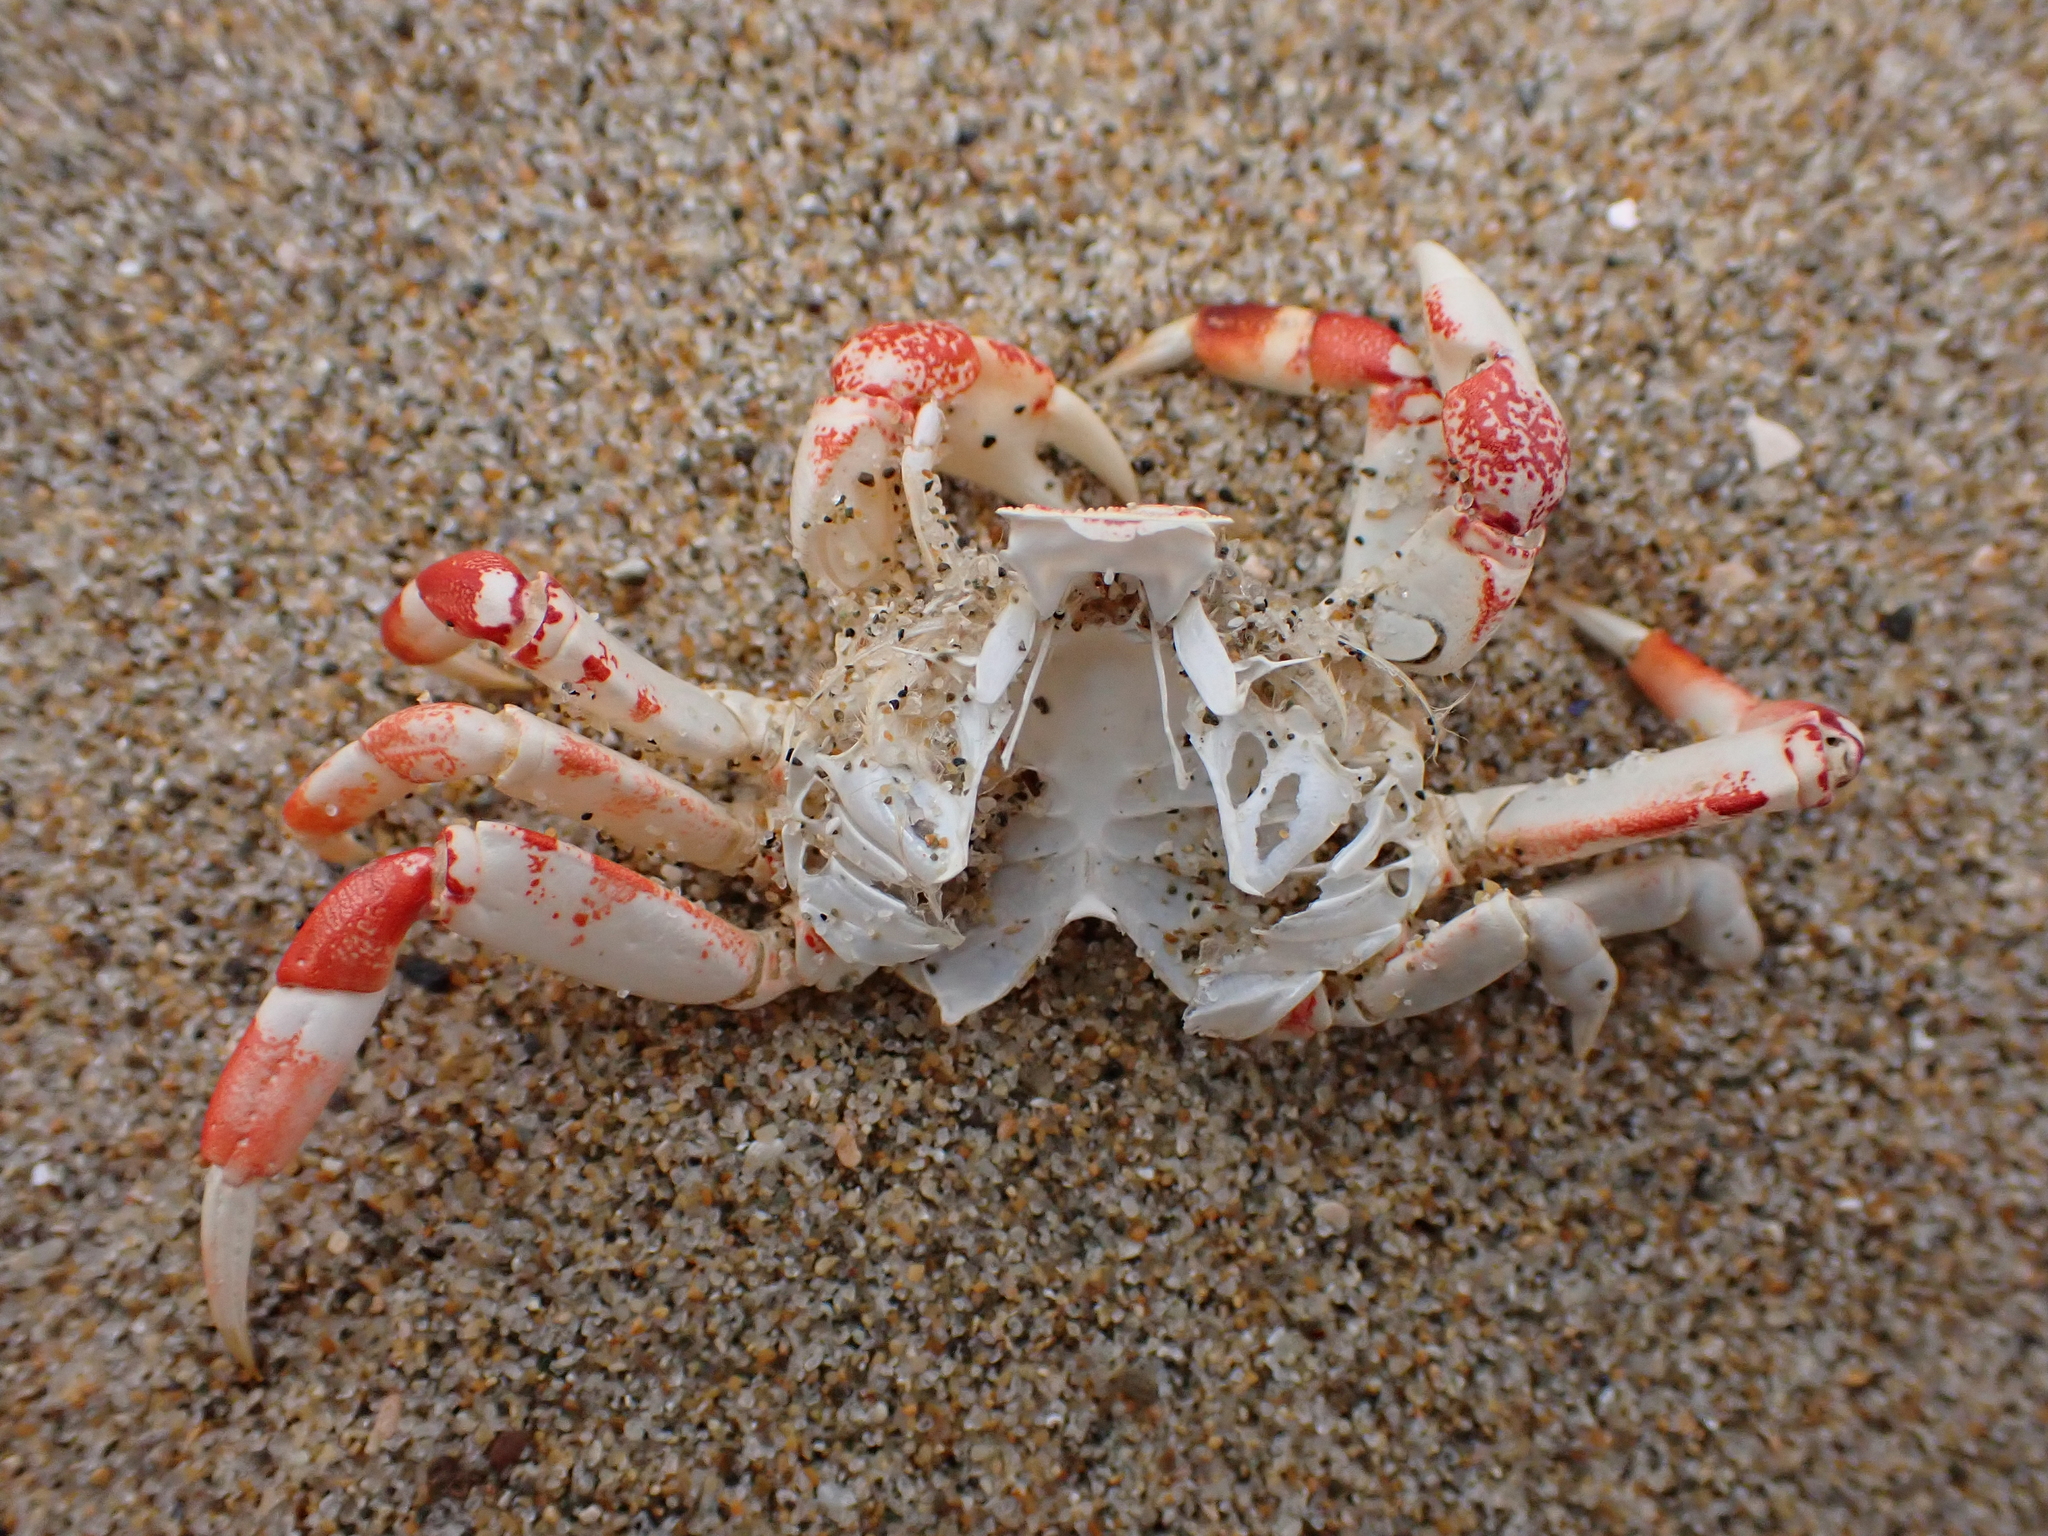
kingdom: Animalia
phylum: Arthropoda
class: Malacostraca
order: Decapoda
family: Varunidae
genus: Hemigrapsus
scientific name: Hemigrapsus sexdentatus
